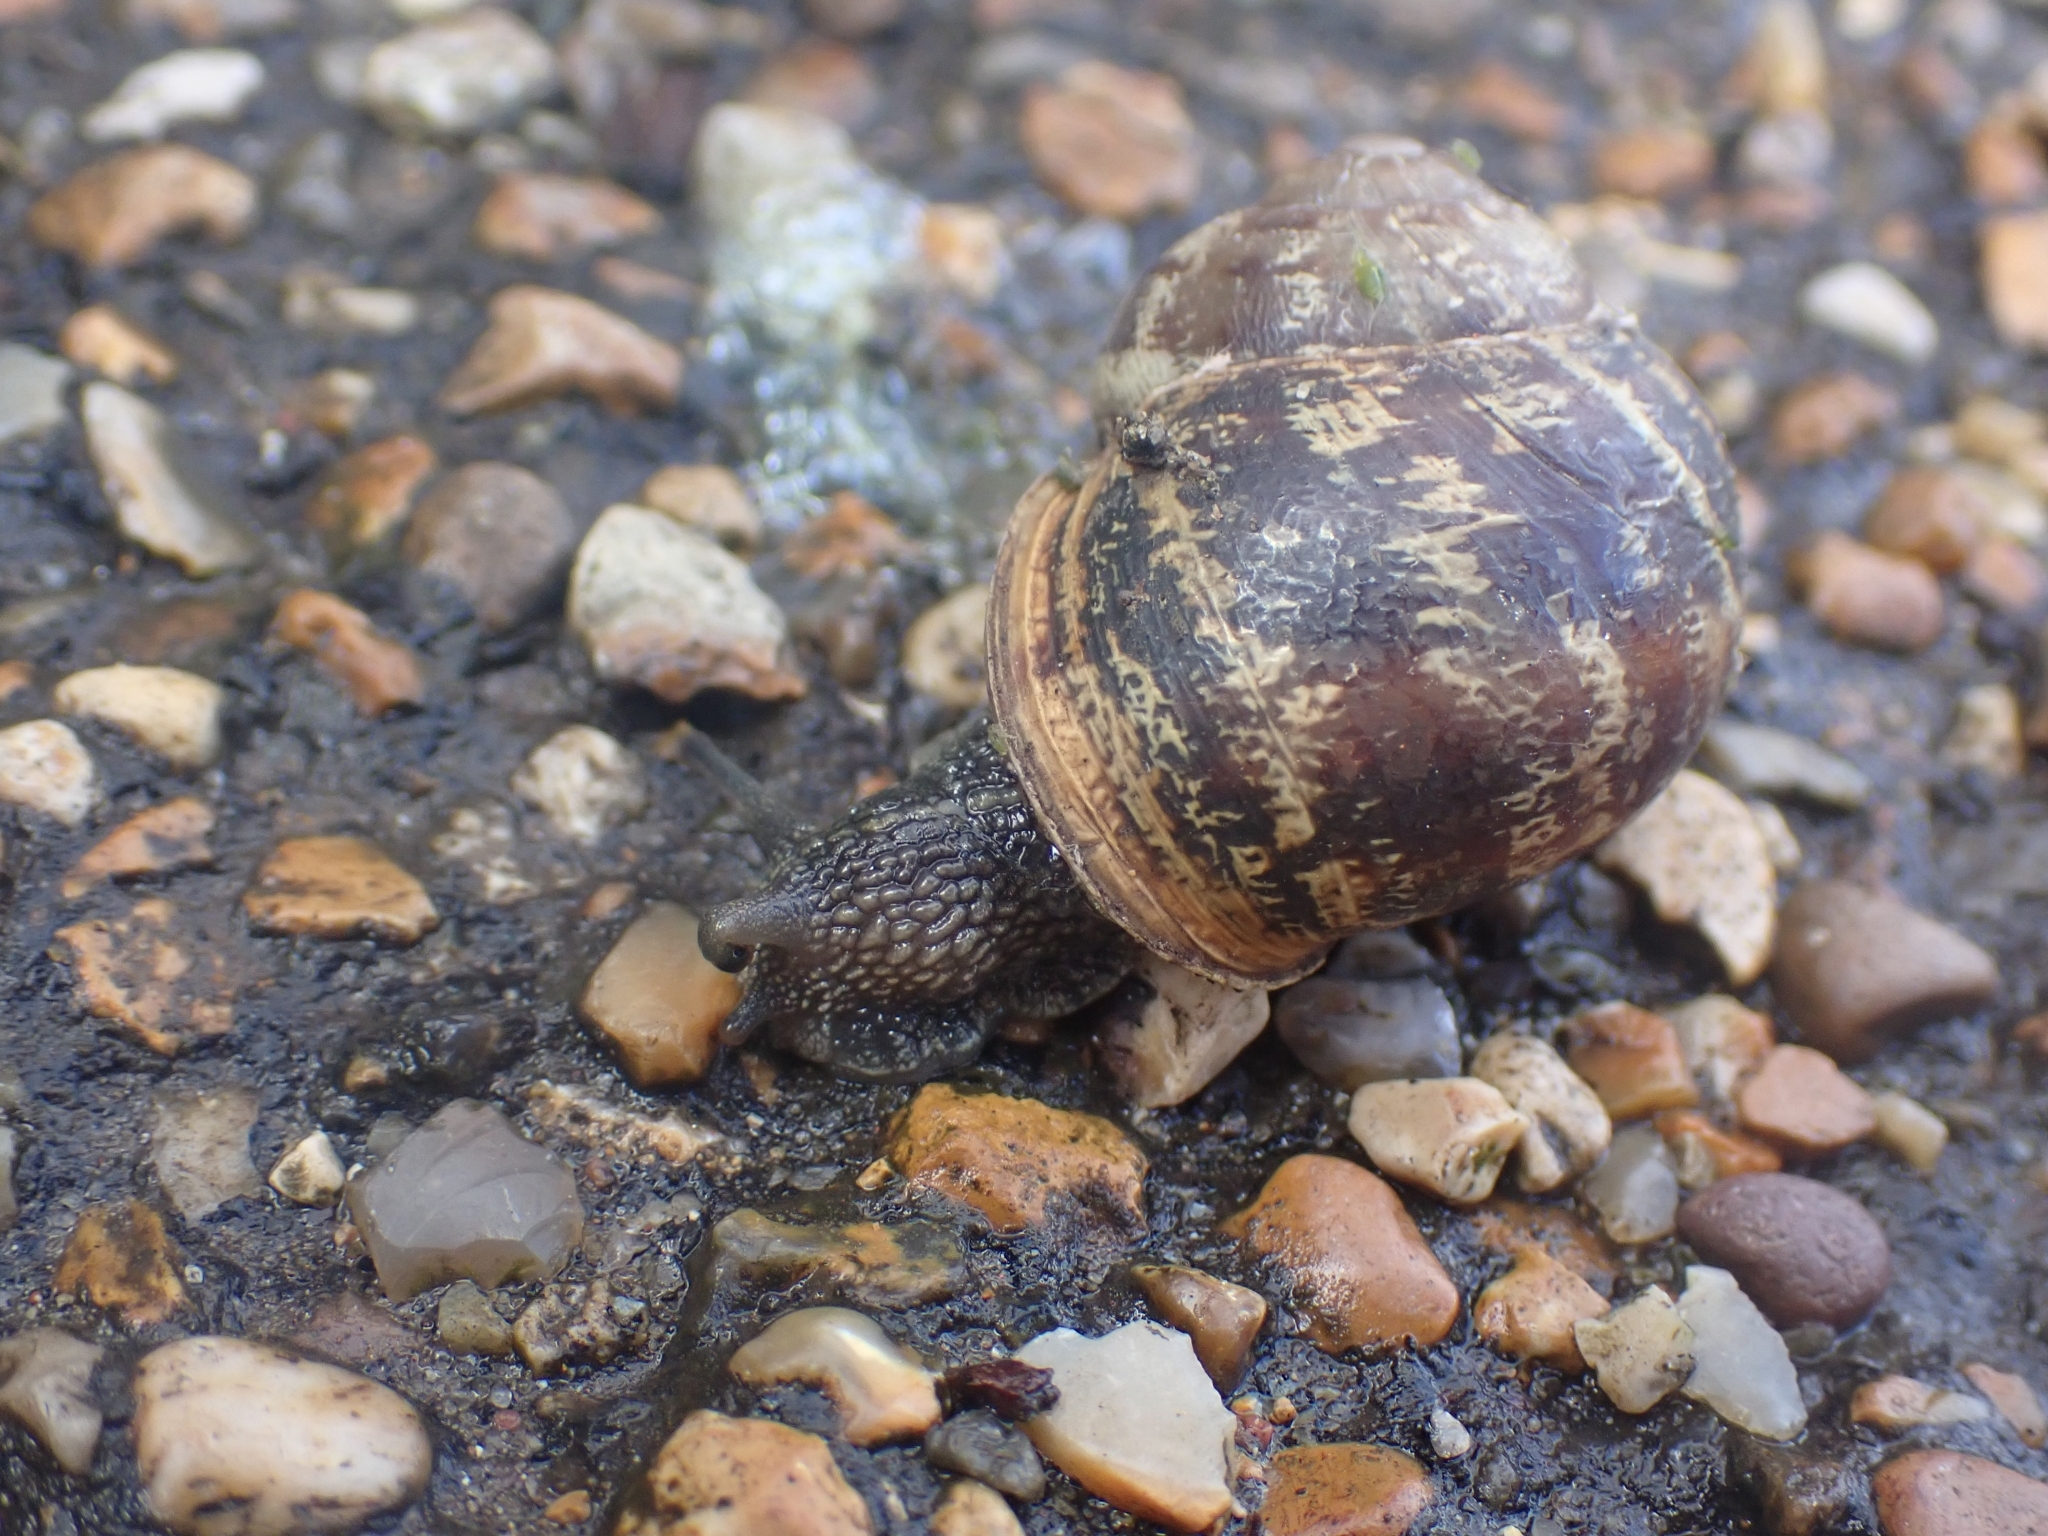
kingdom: Animalia
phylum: Mollusca
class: Gastropoda
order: Stylommatophora
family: Helicidae
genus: Cornu
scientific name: Cornu aspersum
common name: Brown garden snail
